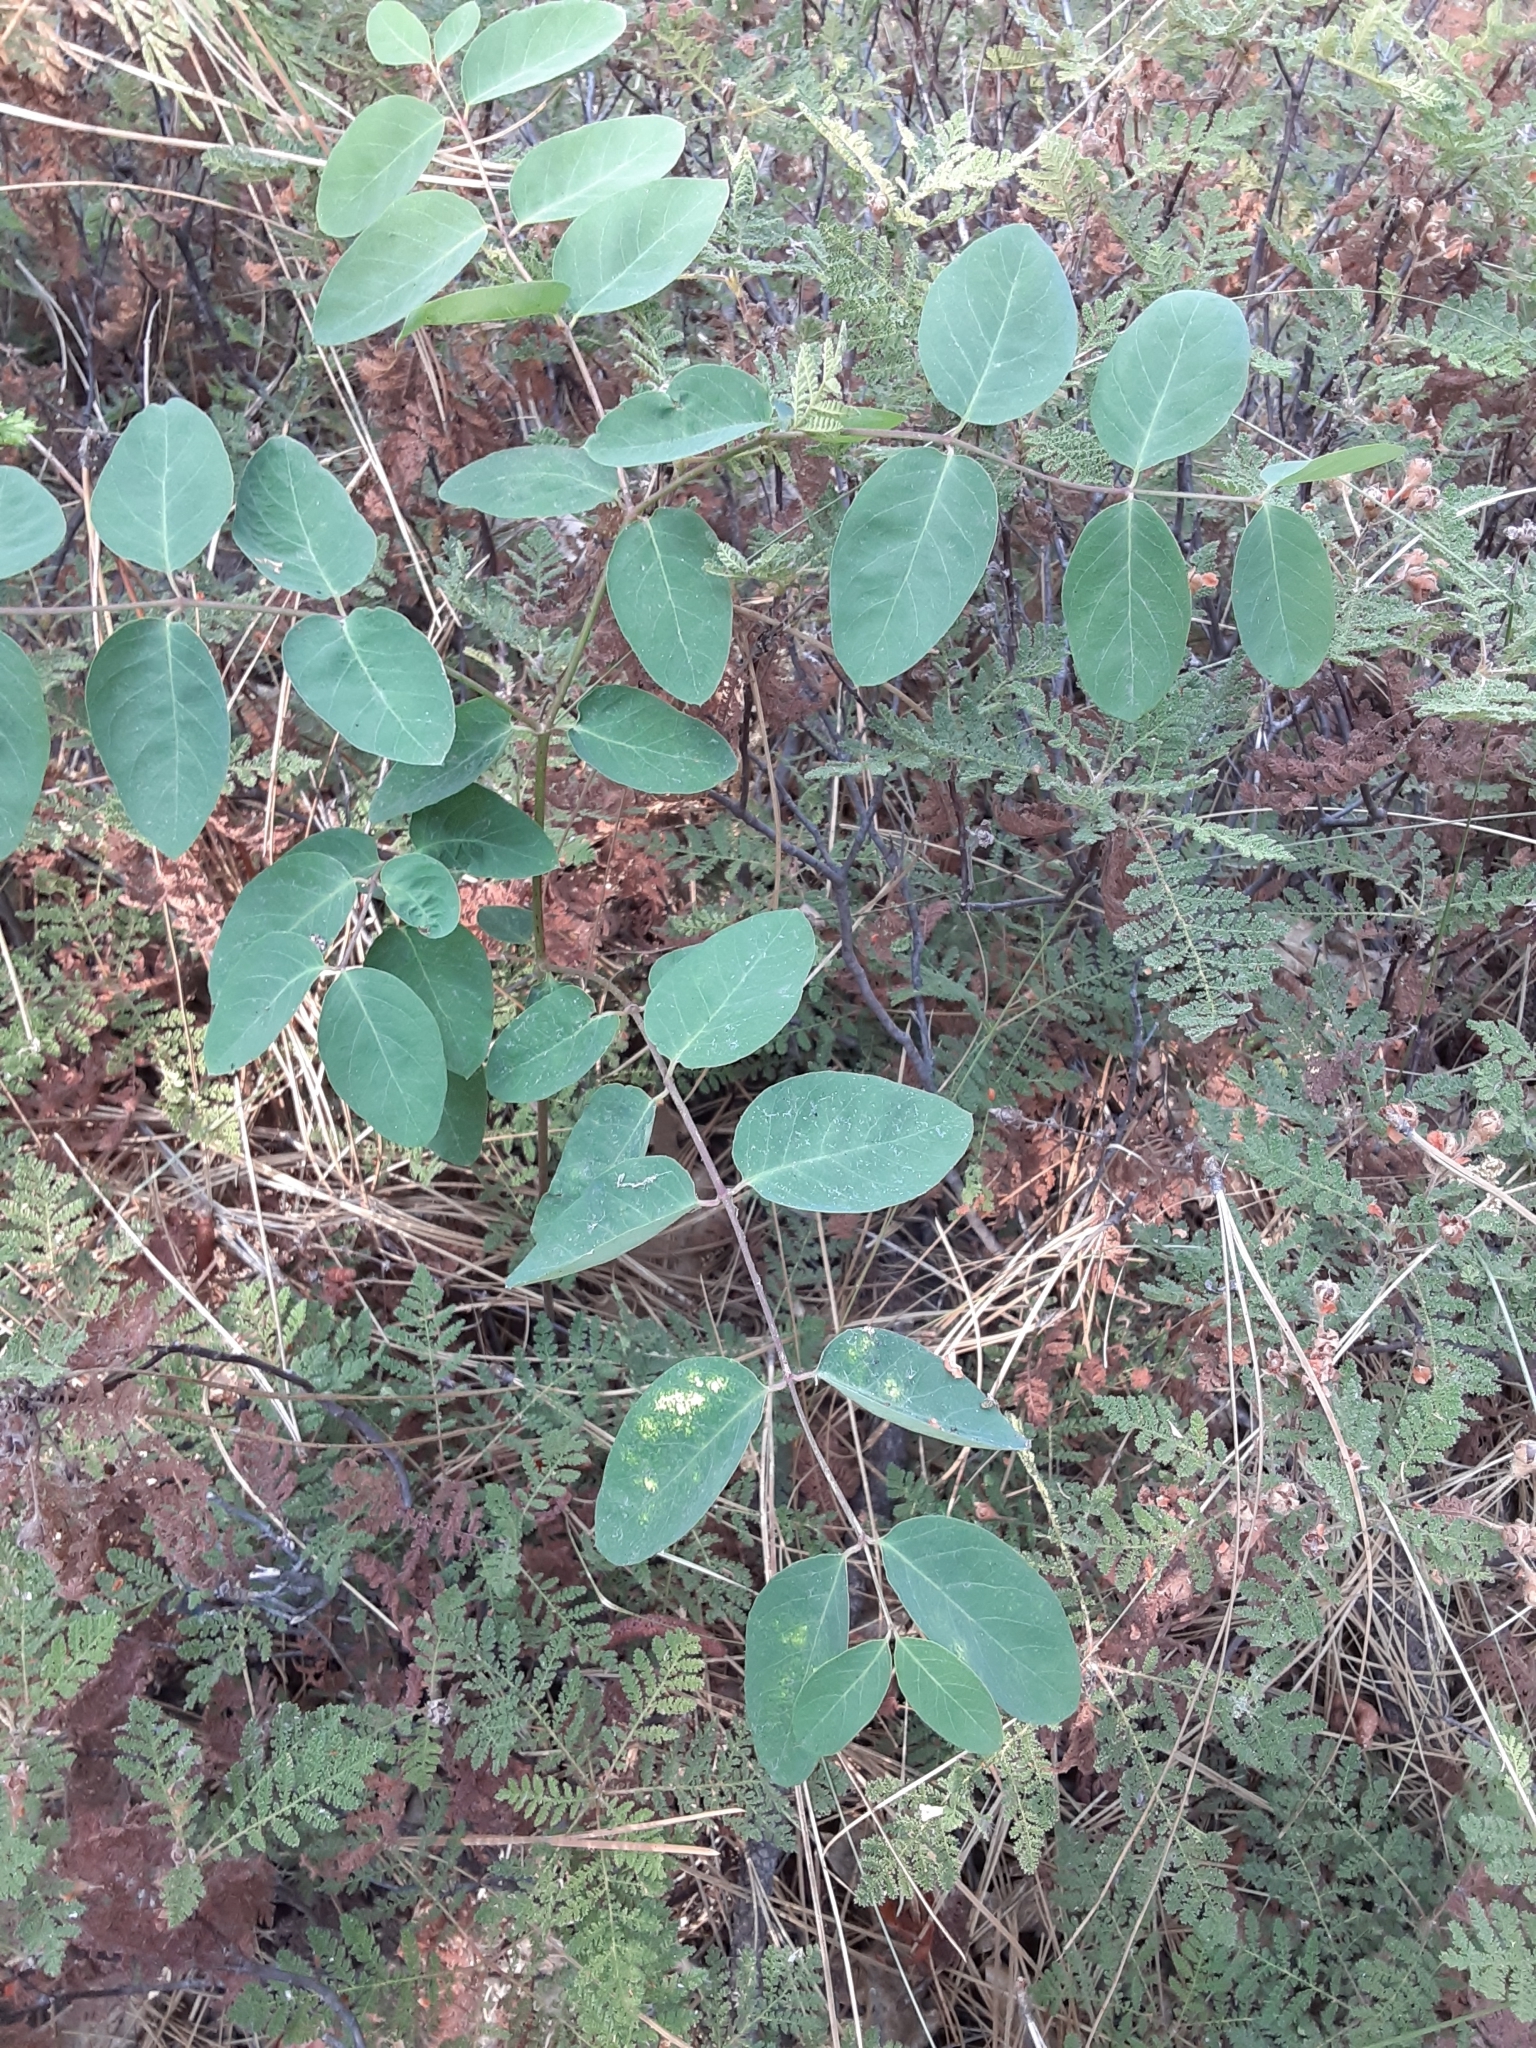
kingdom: Plantae
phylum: Tracheophyta
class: Magnoliopsida
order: Gentianales
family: Apocynaceae
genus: Apocynum
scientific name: Apocynum androsaemifolium
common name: Spreading dogbane
